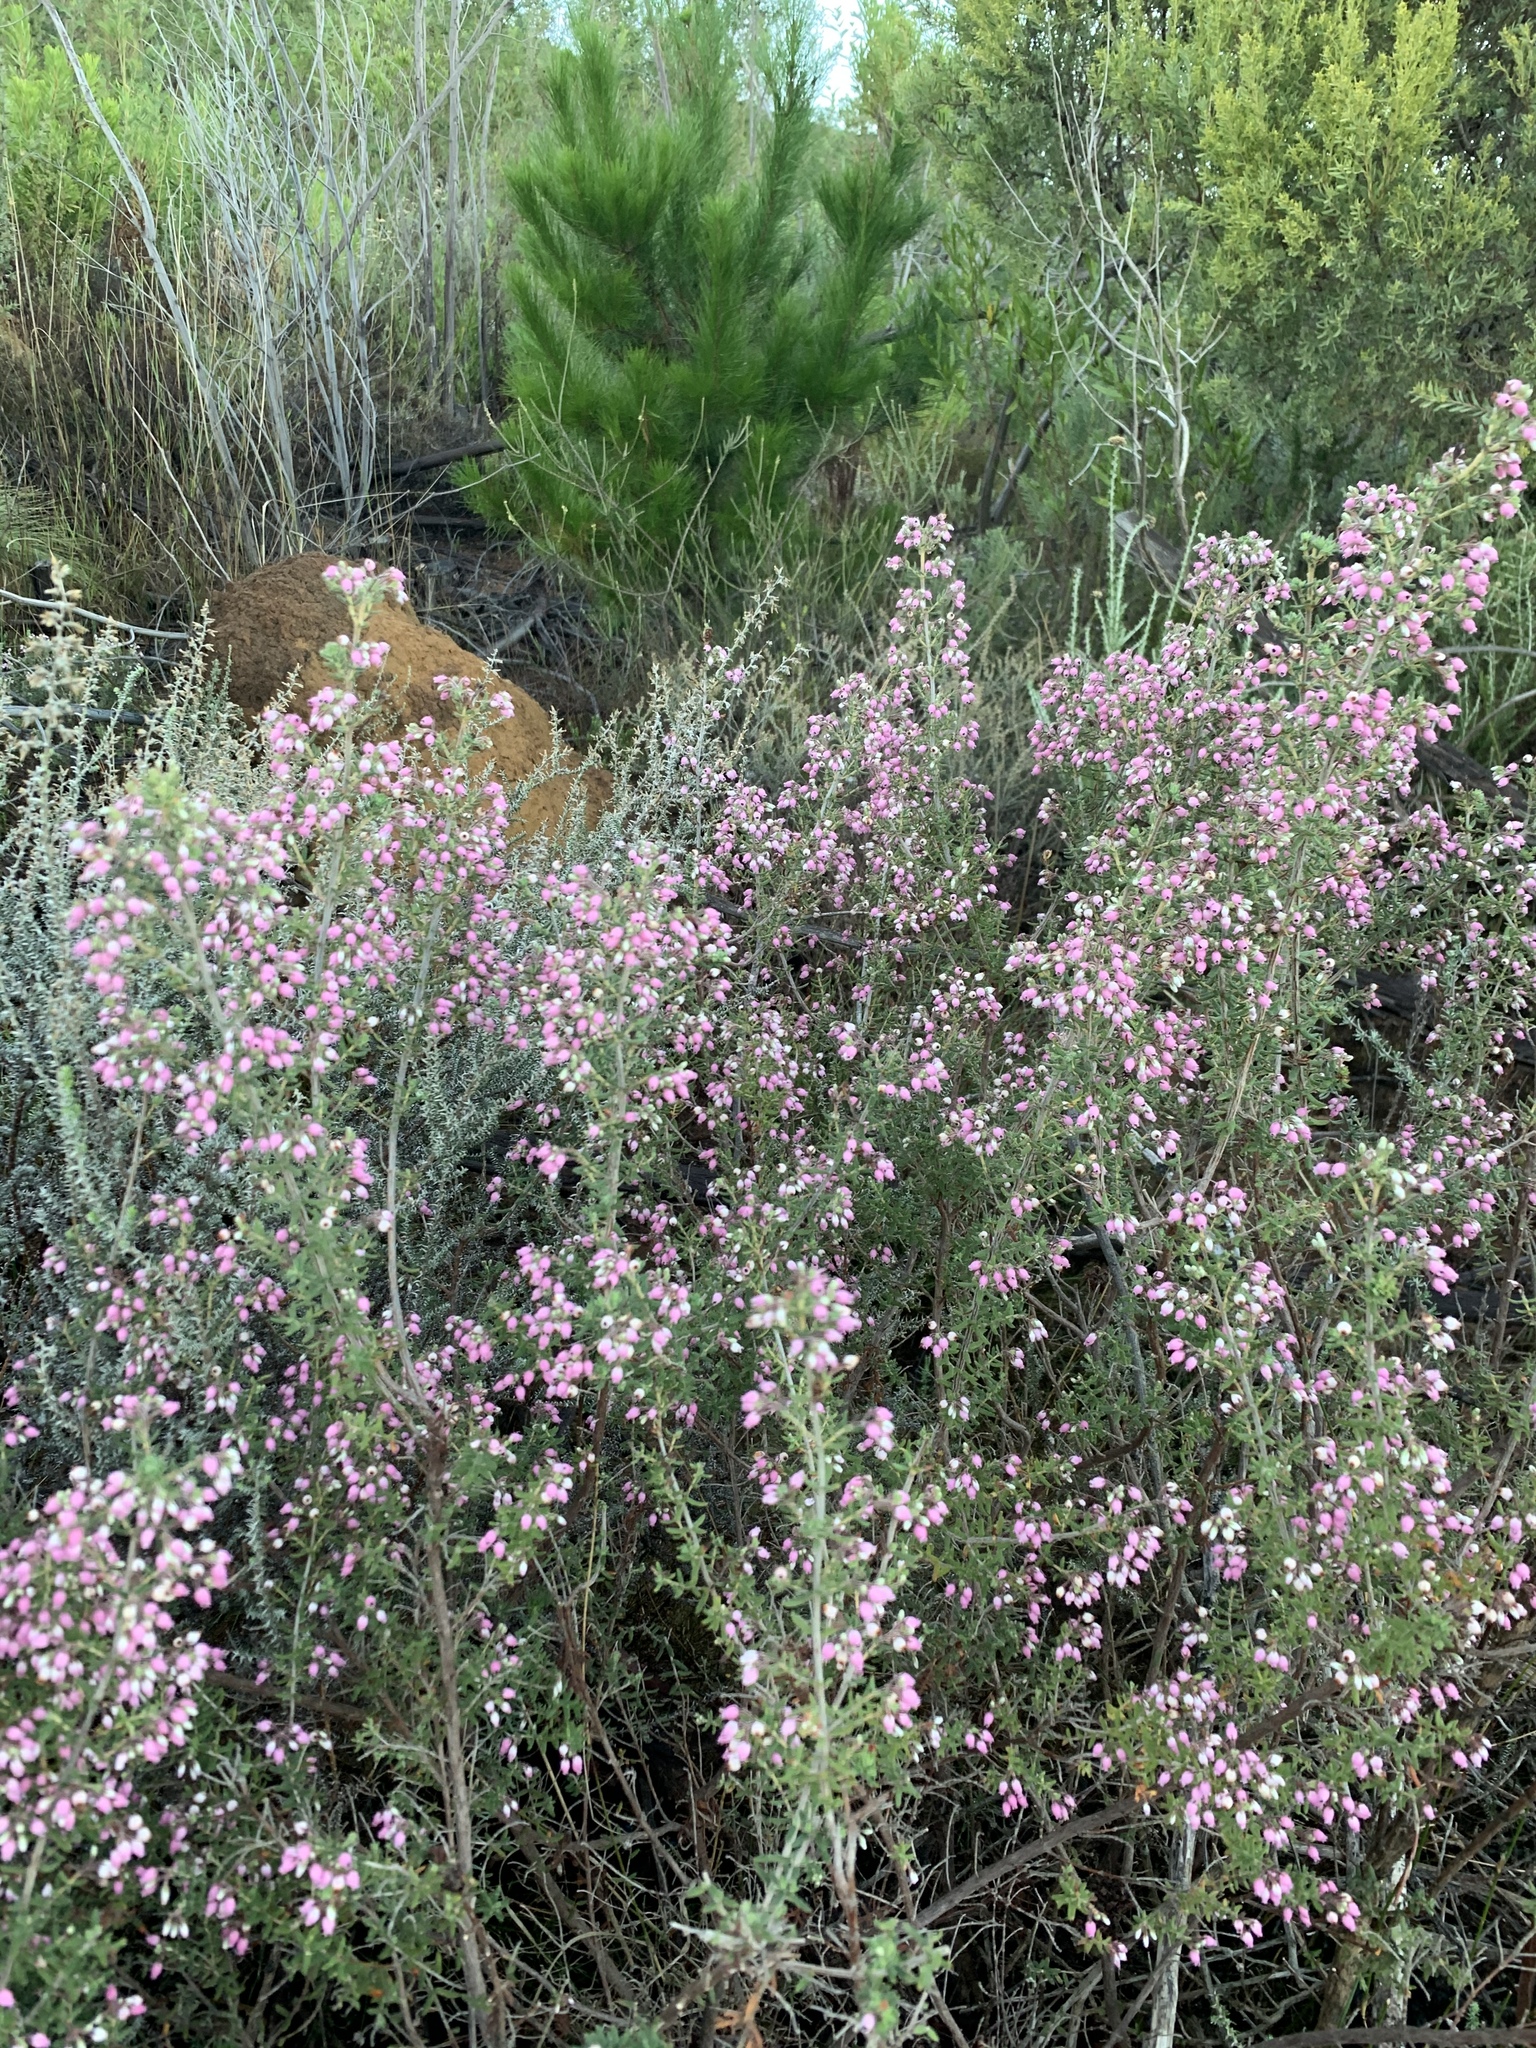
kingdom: Plantae
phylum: Tracheophyta
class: Magnoliopsida
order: Ericales
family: Ericaceae
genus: Erica
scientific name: Erica hirta
